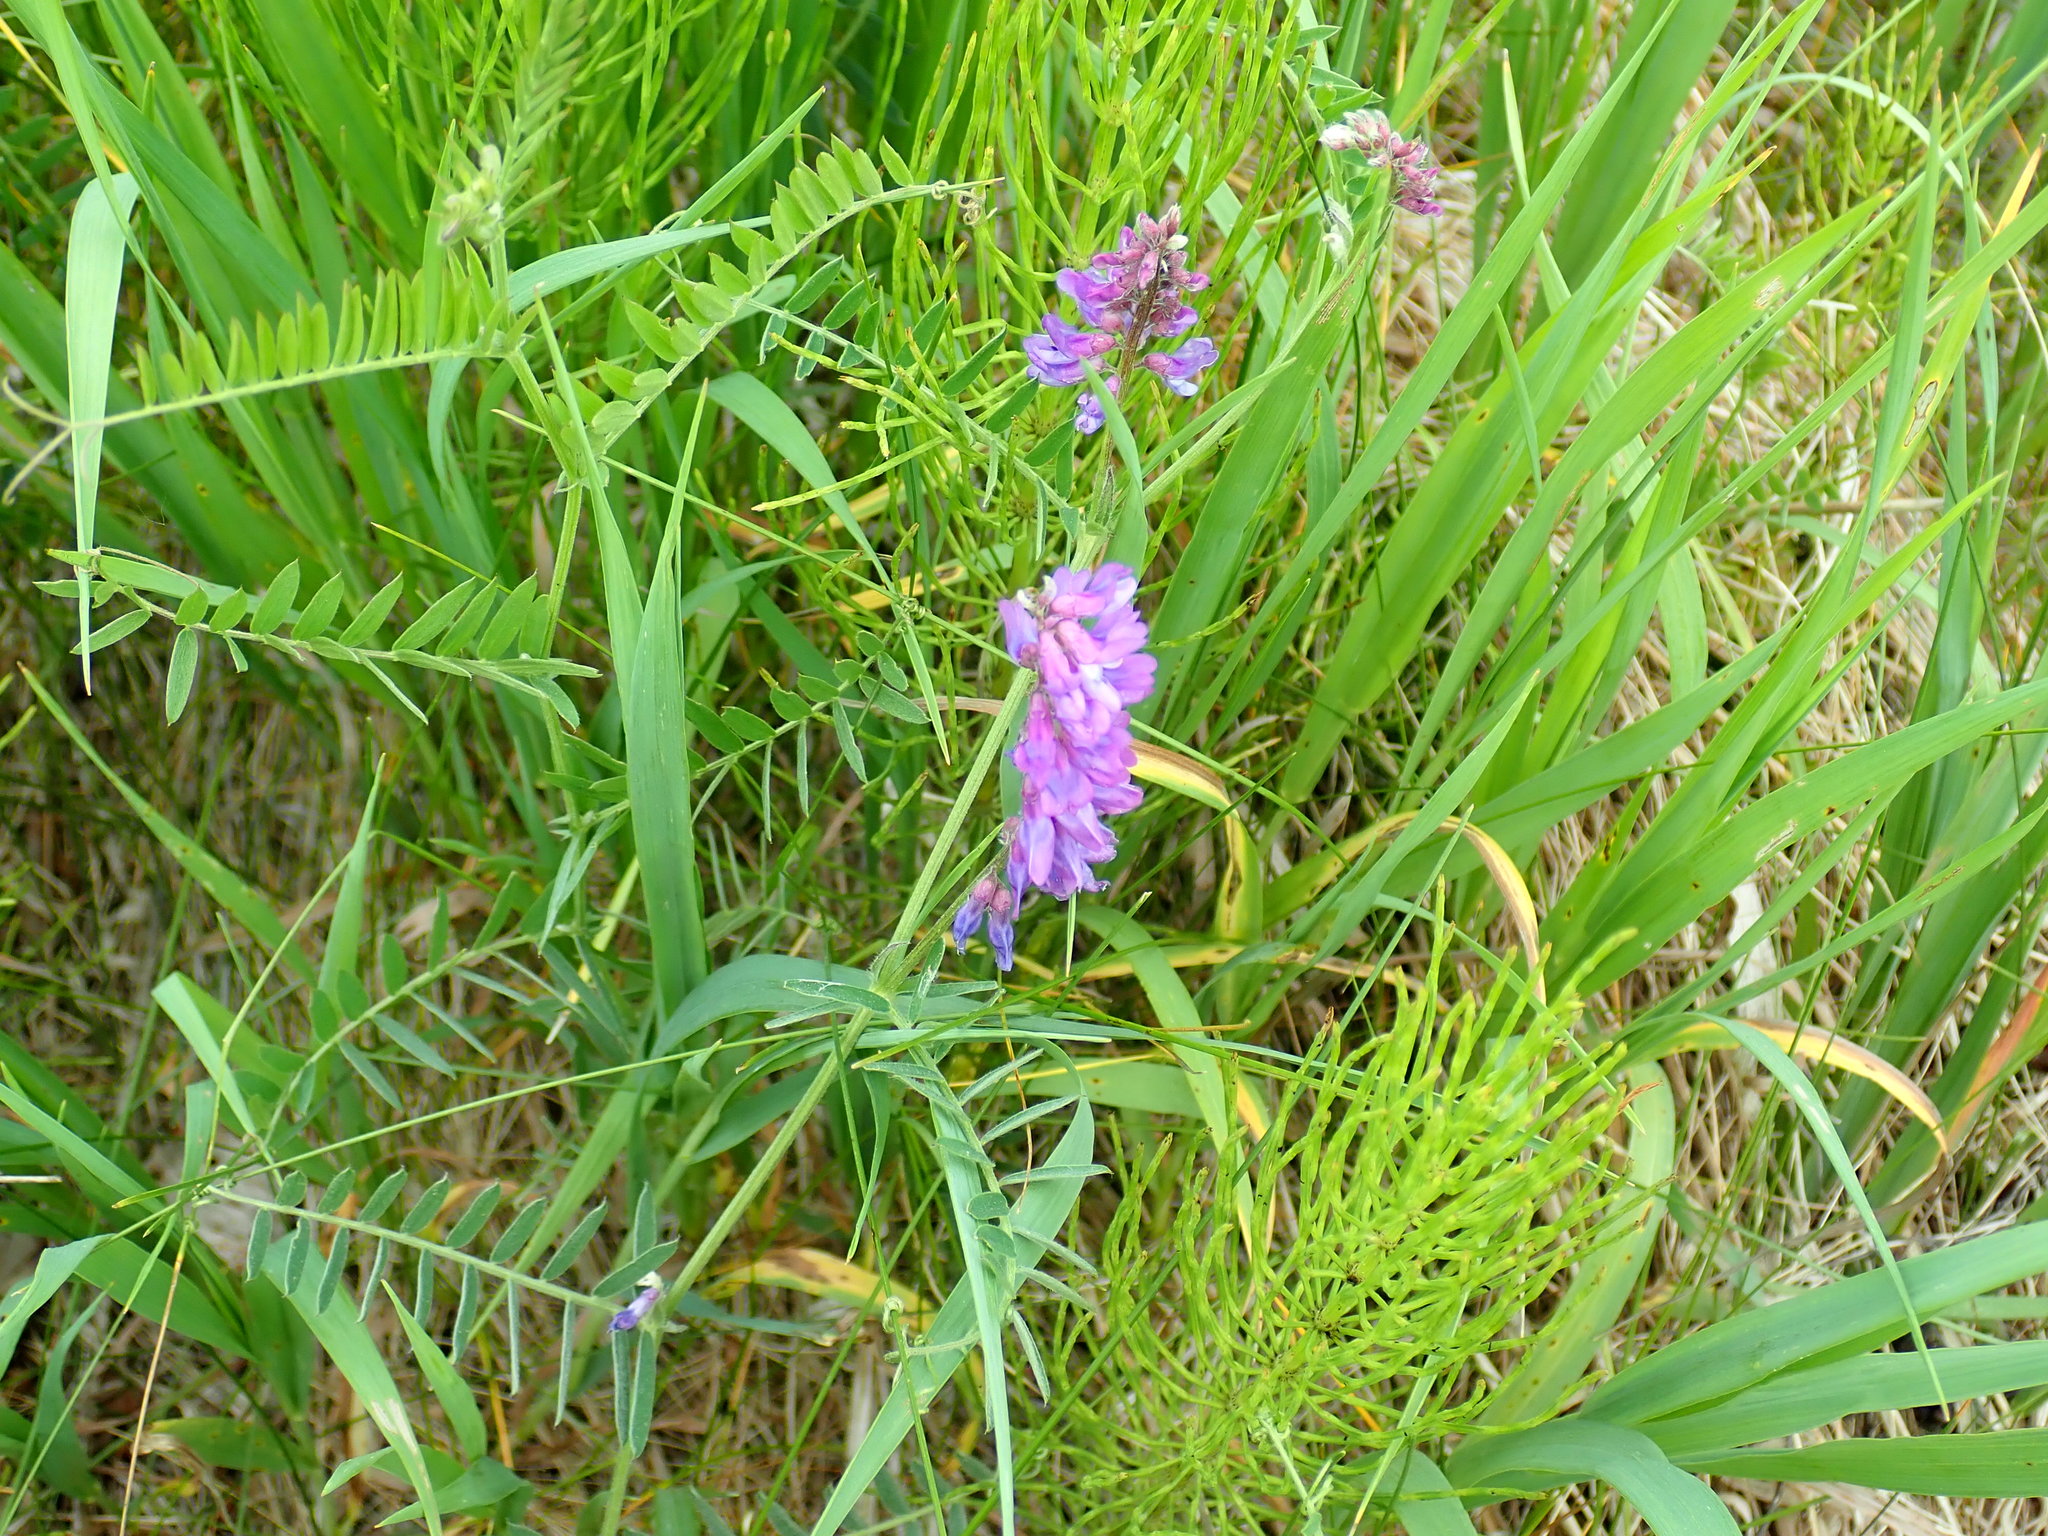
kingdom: Plantae
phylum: Tracheophyta
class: Magnoliopsida
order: Fabales
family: Fabaceae
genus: Vicia
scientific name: Vicia cracca
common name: Bird vetch
